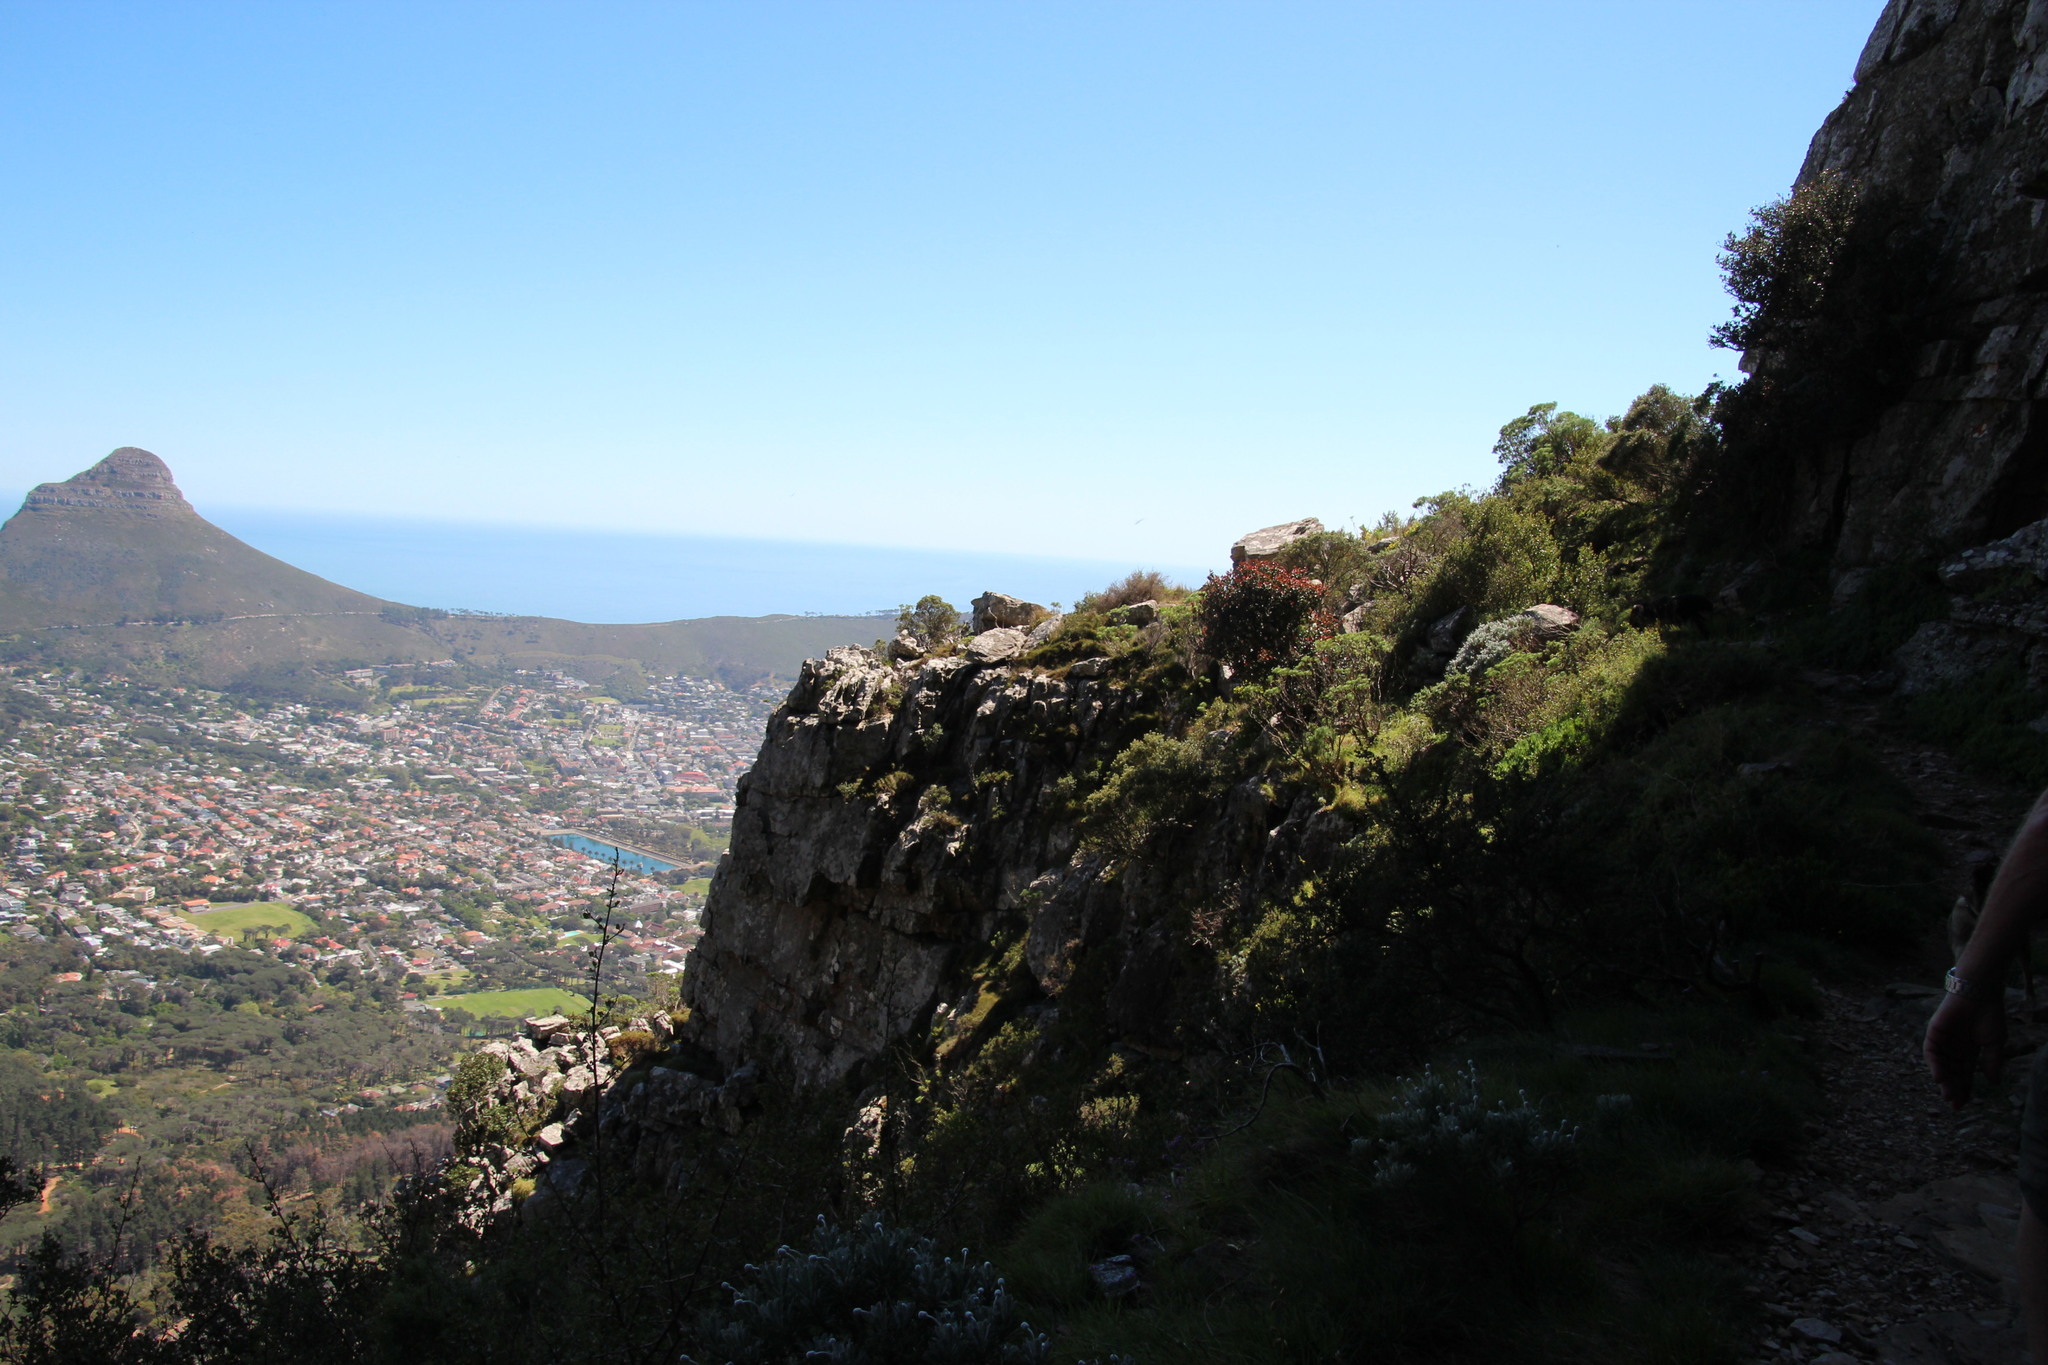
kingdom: Plantae
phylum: Tracheophyta
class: Magnoliopsida
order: Celastrales
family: Celastraceae
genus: Maurocenia
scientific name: Maurocenia frangula
